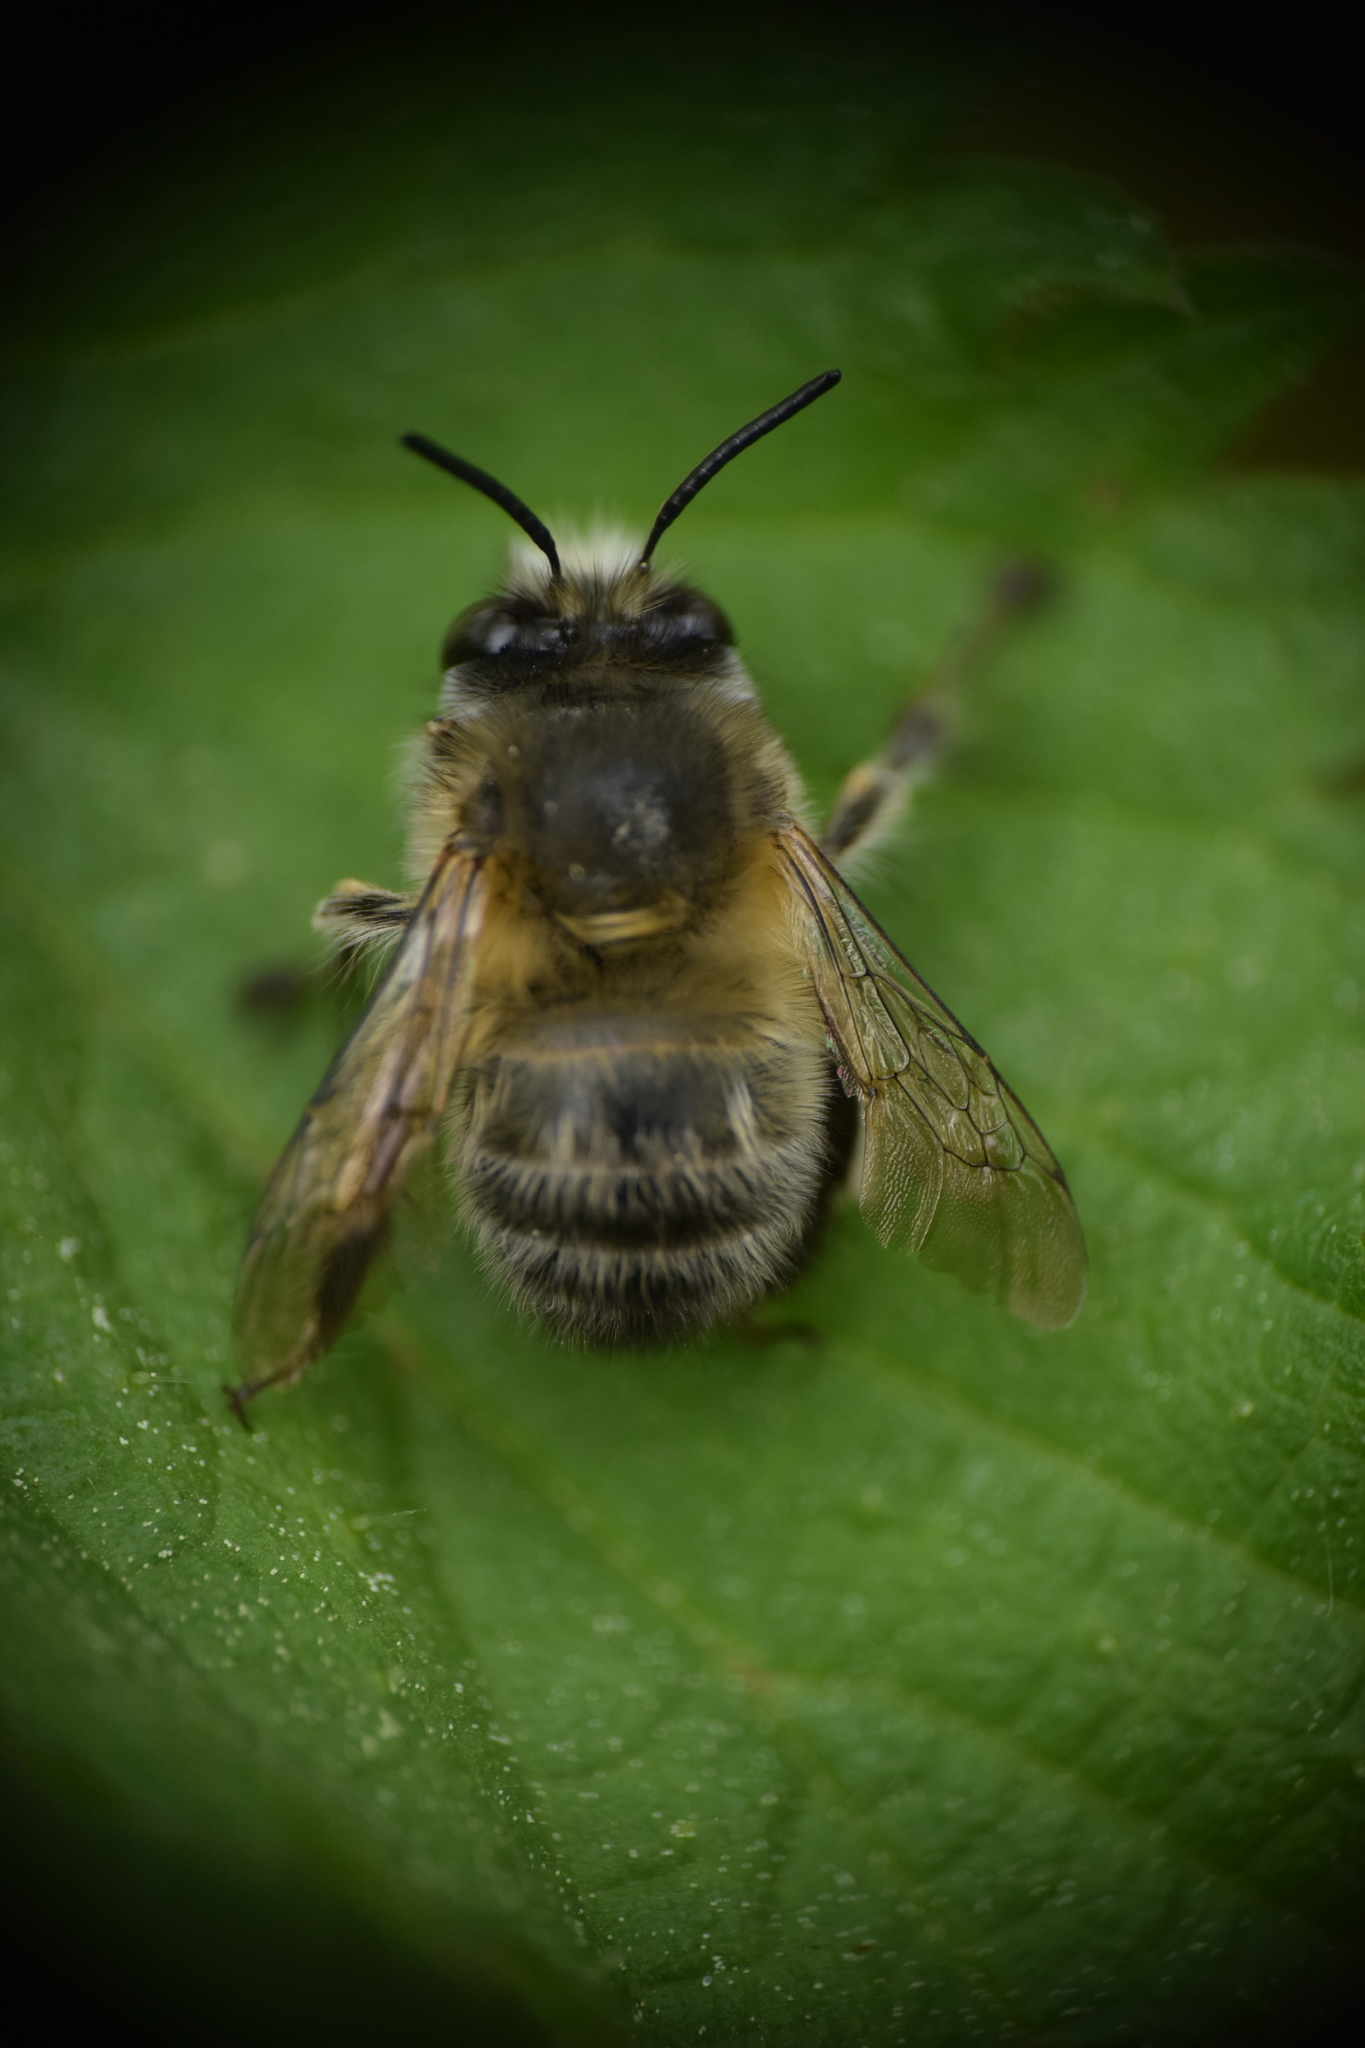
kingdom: Animalia
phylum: Arthropoda
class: Insecta
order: Hymenoptera
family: Apidae
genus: Anthophora
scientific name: Anthophora plumipes
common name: Hairy-footed flower bee
